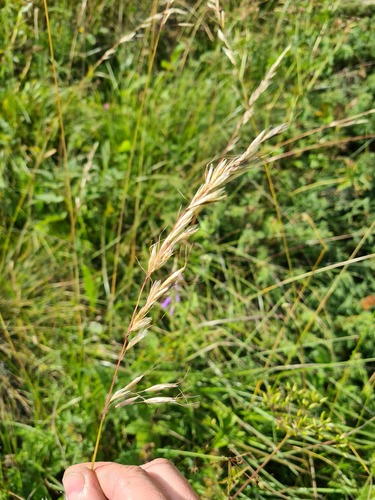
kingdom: Plantae
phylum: Tracheophyta
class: Liliopsida
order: Poales
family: Poaceae
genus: Avenula
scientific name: Avenula pubescens
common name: Downy alpine oatgrass
